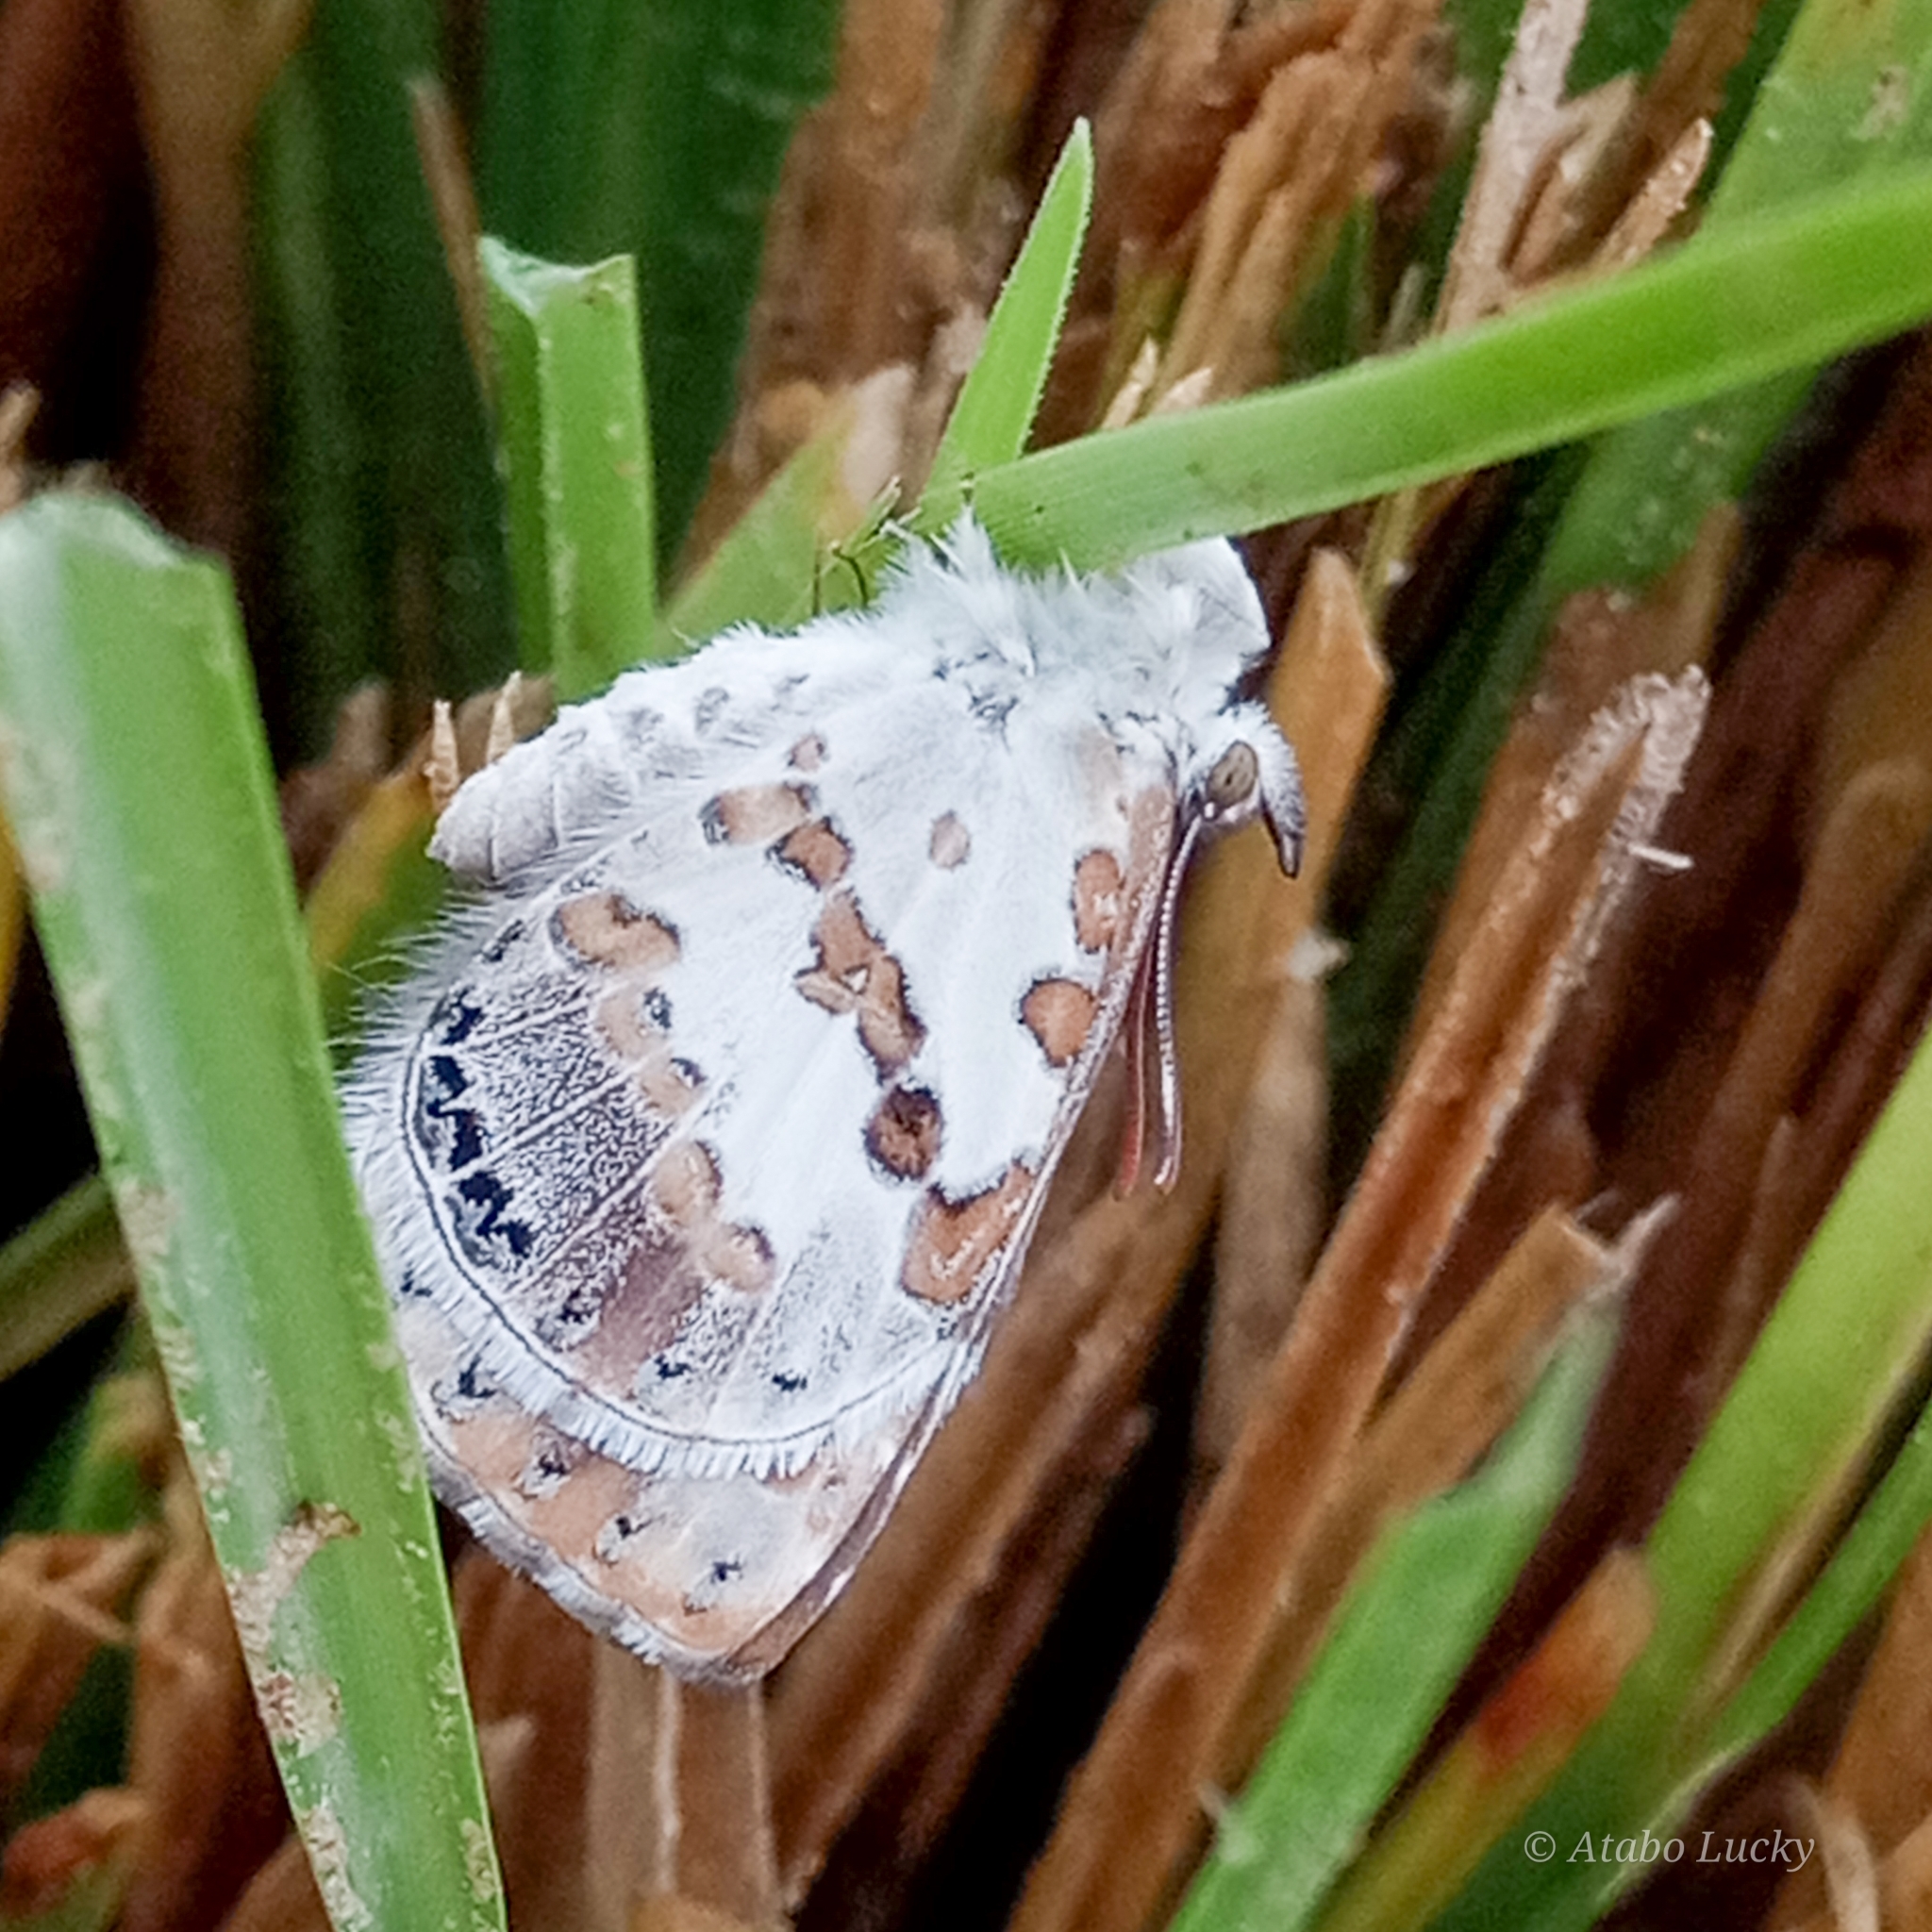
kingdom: Animalia
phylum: Arthropoda
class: Insecta
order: Lepidoptera
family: Lycaenidae
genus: Lachnocnema
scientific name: Lachnocnema
